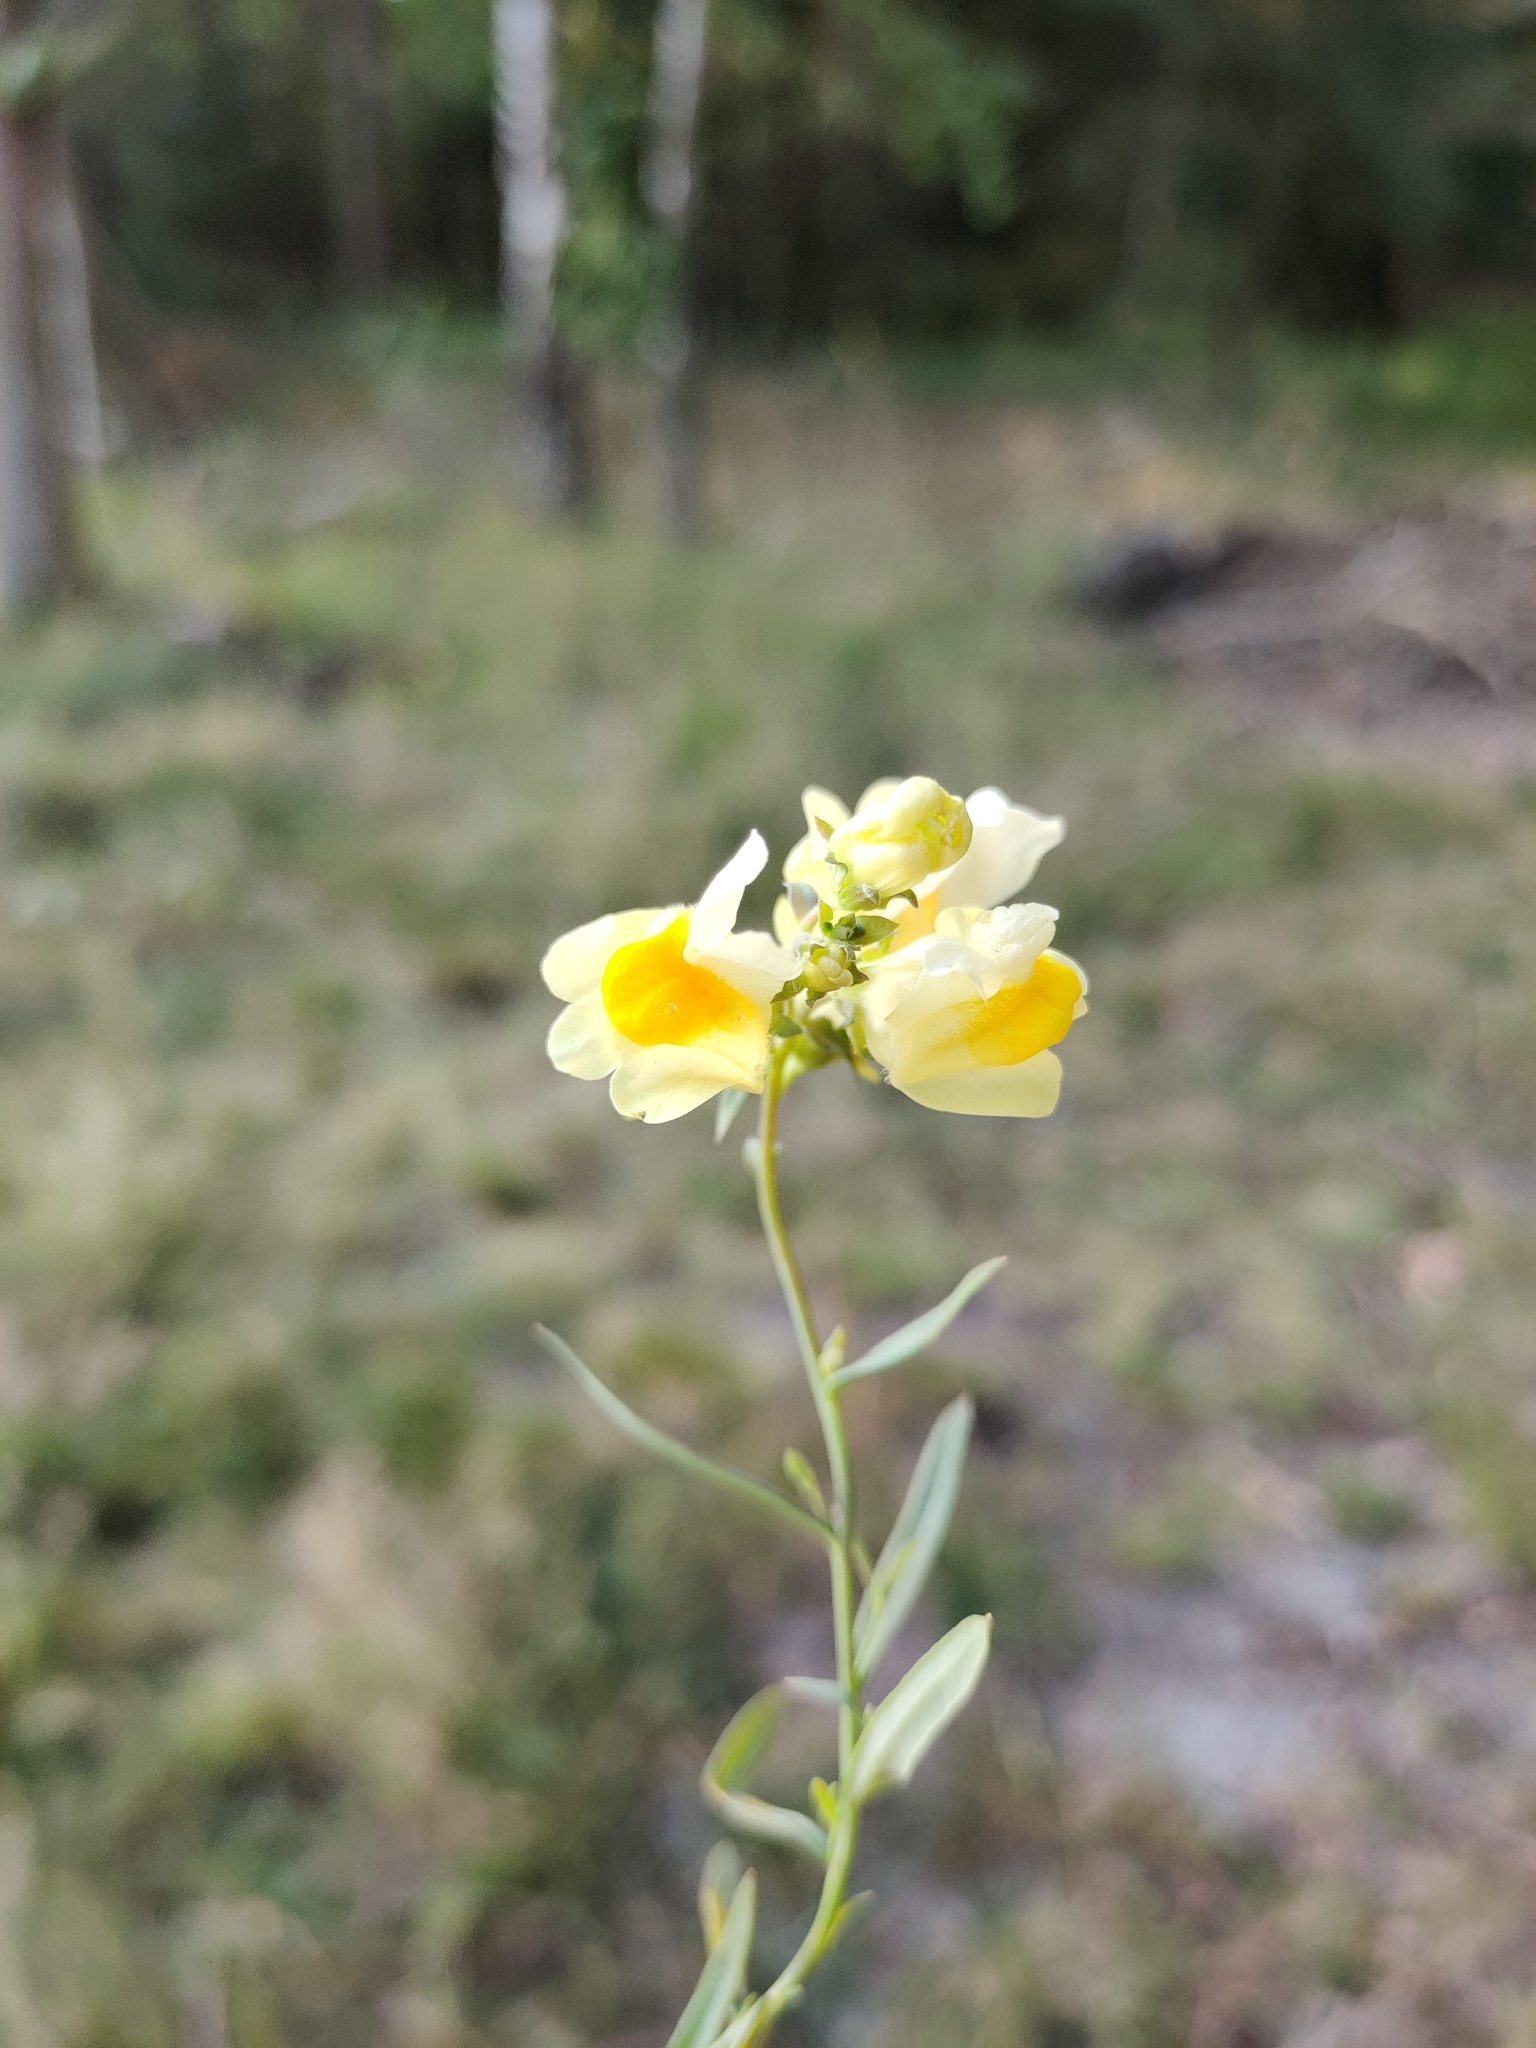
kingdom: Plantae
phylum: Tracheophyta
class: Magnoliopsida
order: Lamiales
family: Plantaginaceae
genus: Linaria
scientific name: Linaria vulgaris
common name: Butter and eggs
